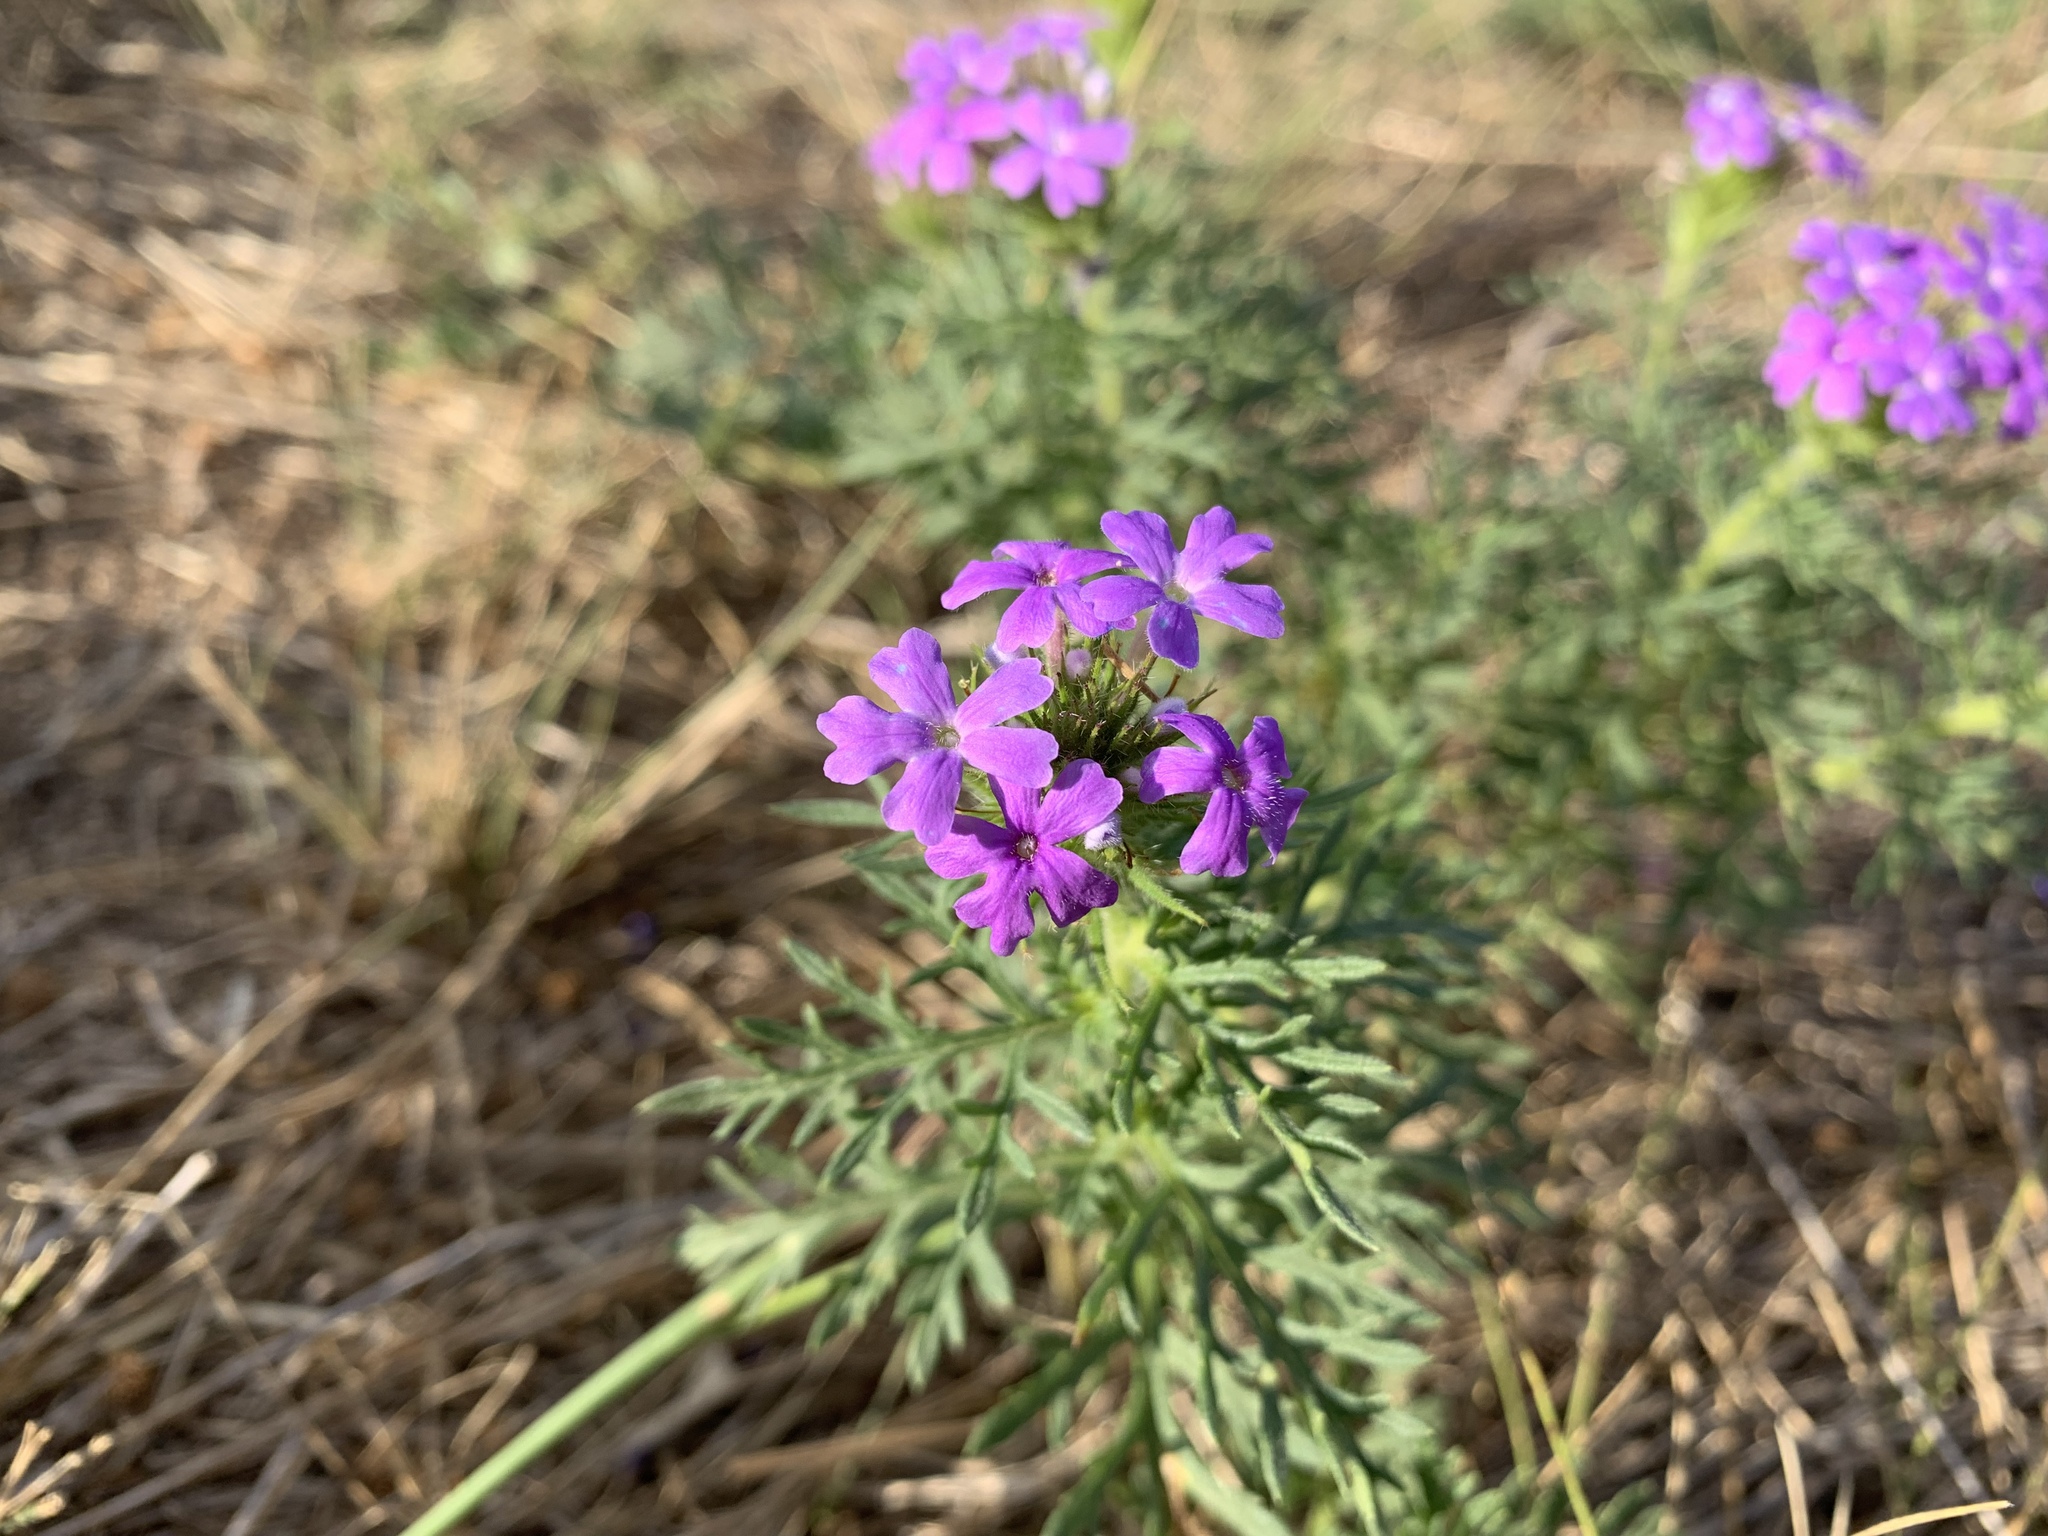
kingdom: Plantae
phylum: Tracheophyta
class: Magnoliopsida
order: Lamiales
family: Verbenaceae
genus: Verbena
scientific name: Verbena bipinnatifida
